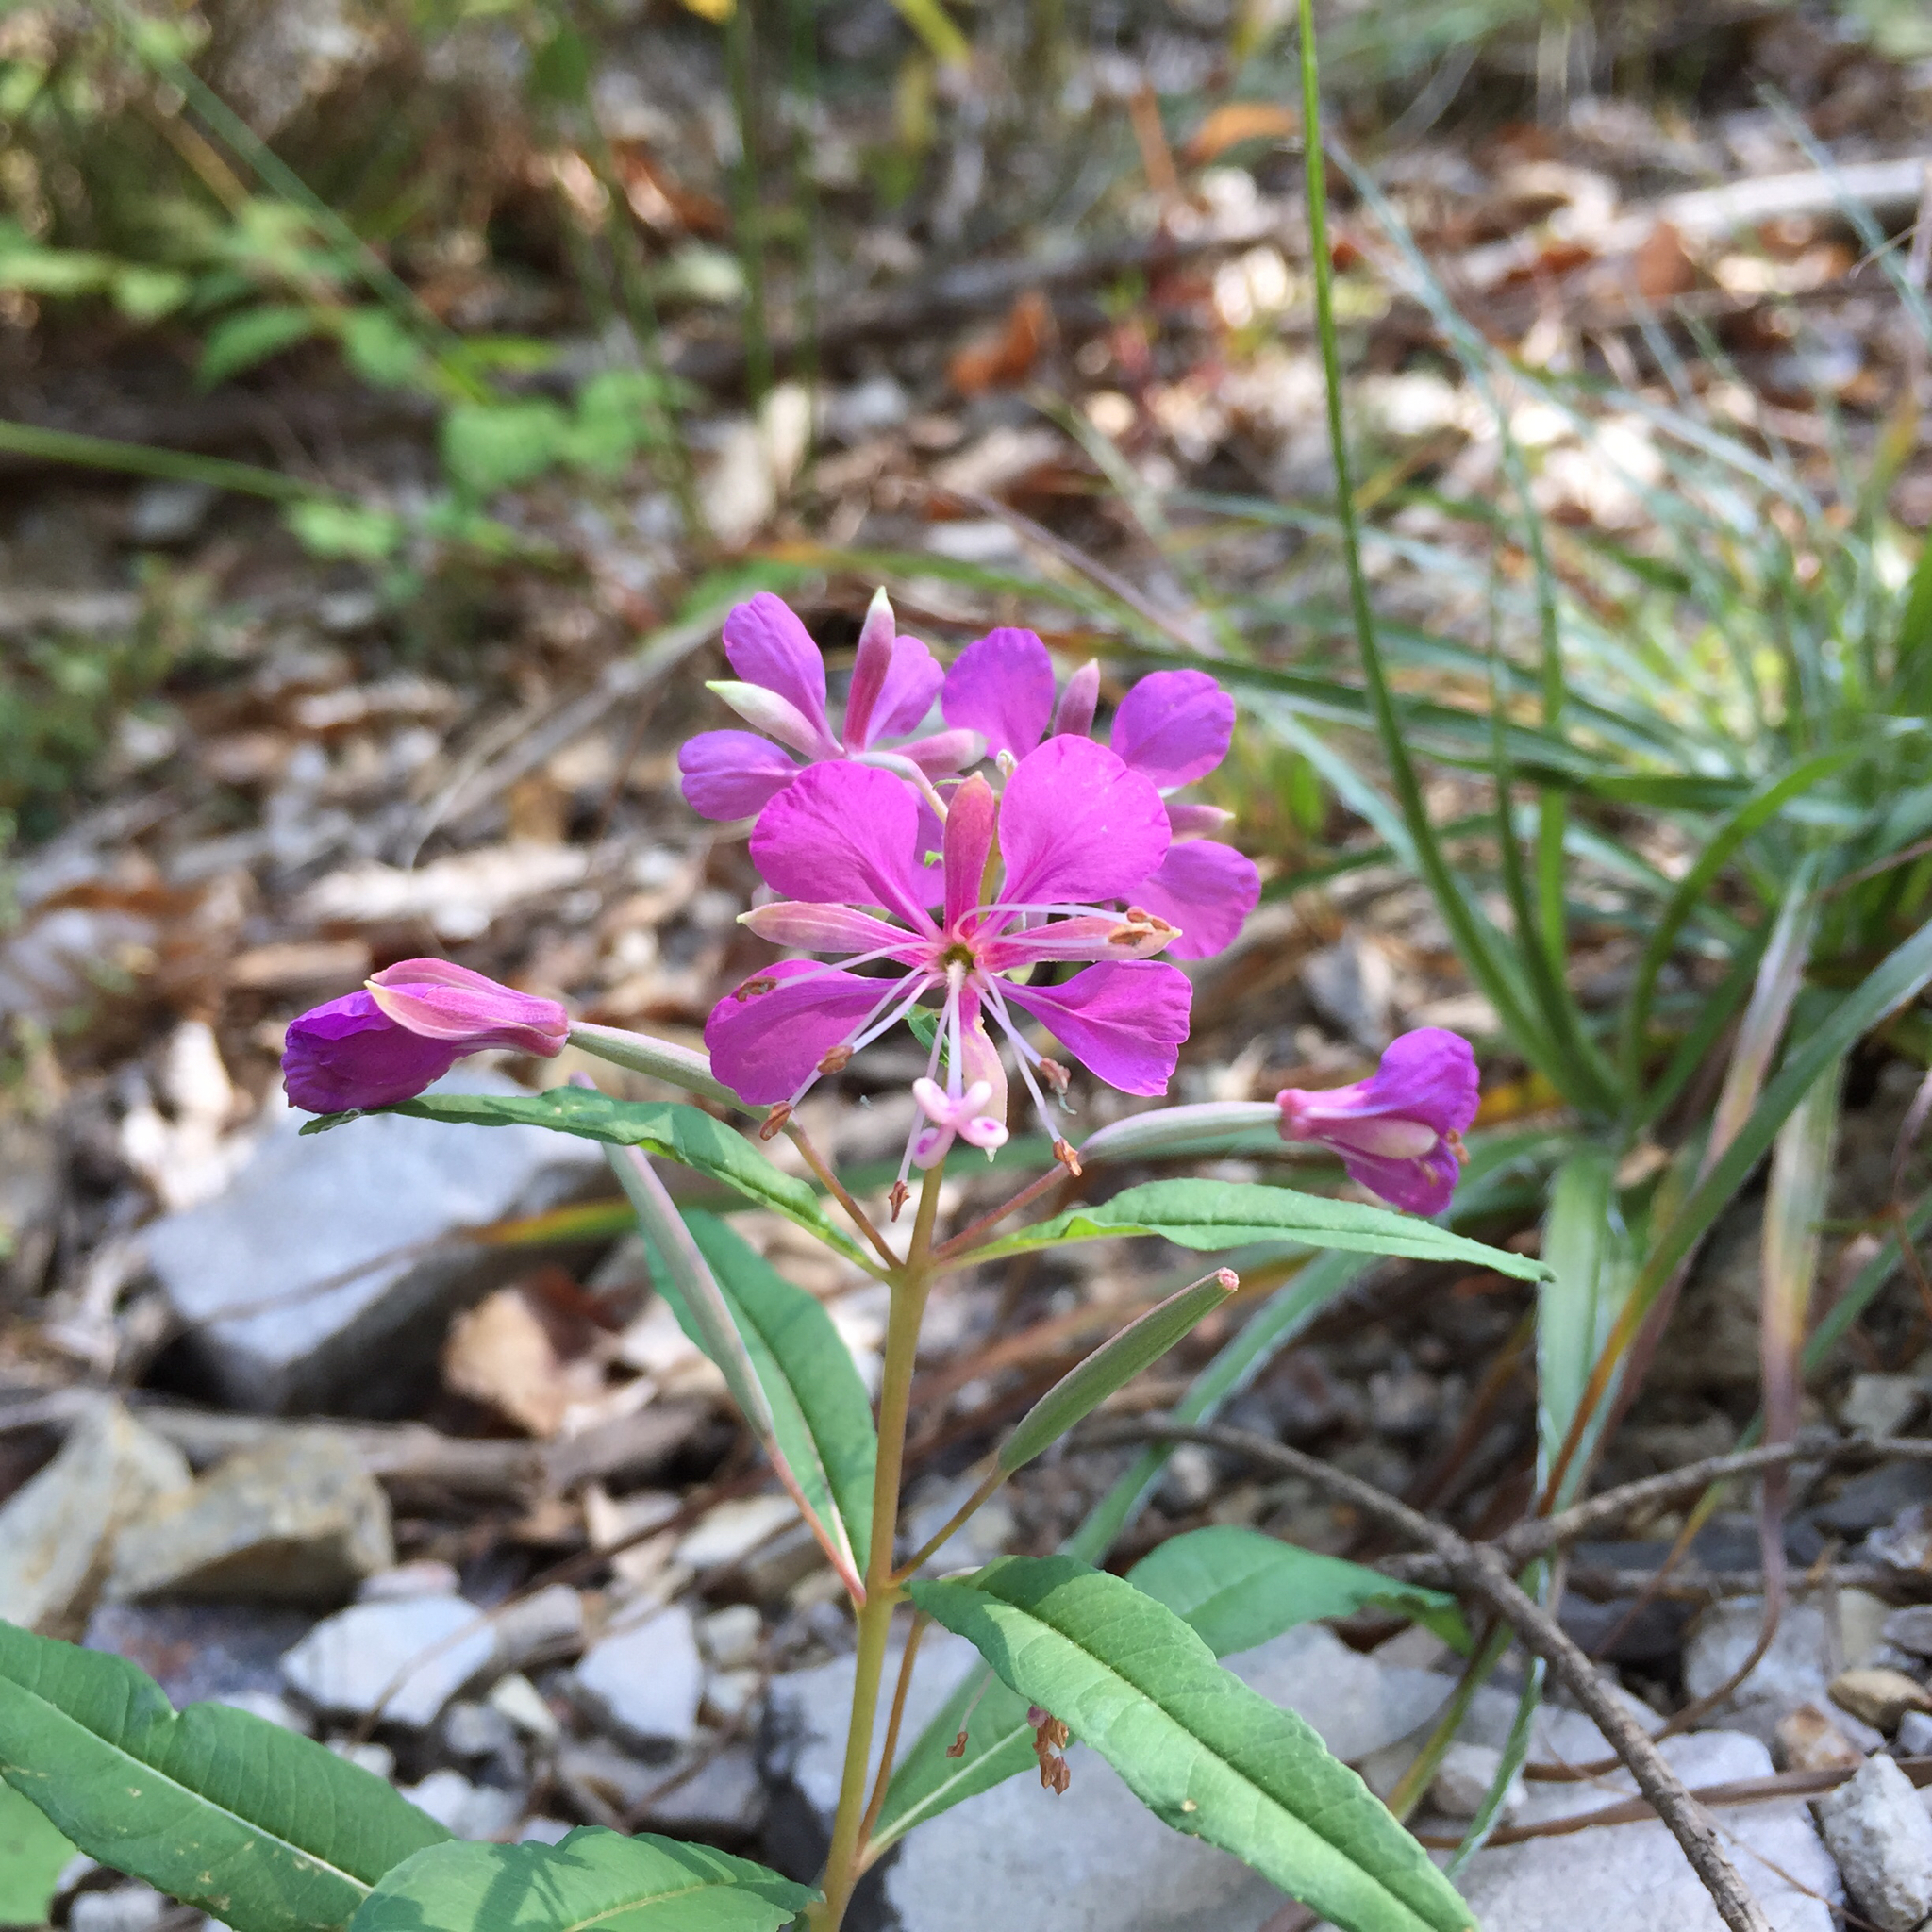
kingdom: Plantae
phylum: Tracheophyta
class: Magnoliopsida
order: Myrtales
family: Onagraceae
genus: Chamaenerion
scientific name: Chamaenerion angustifolium
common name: Fireweed
